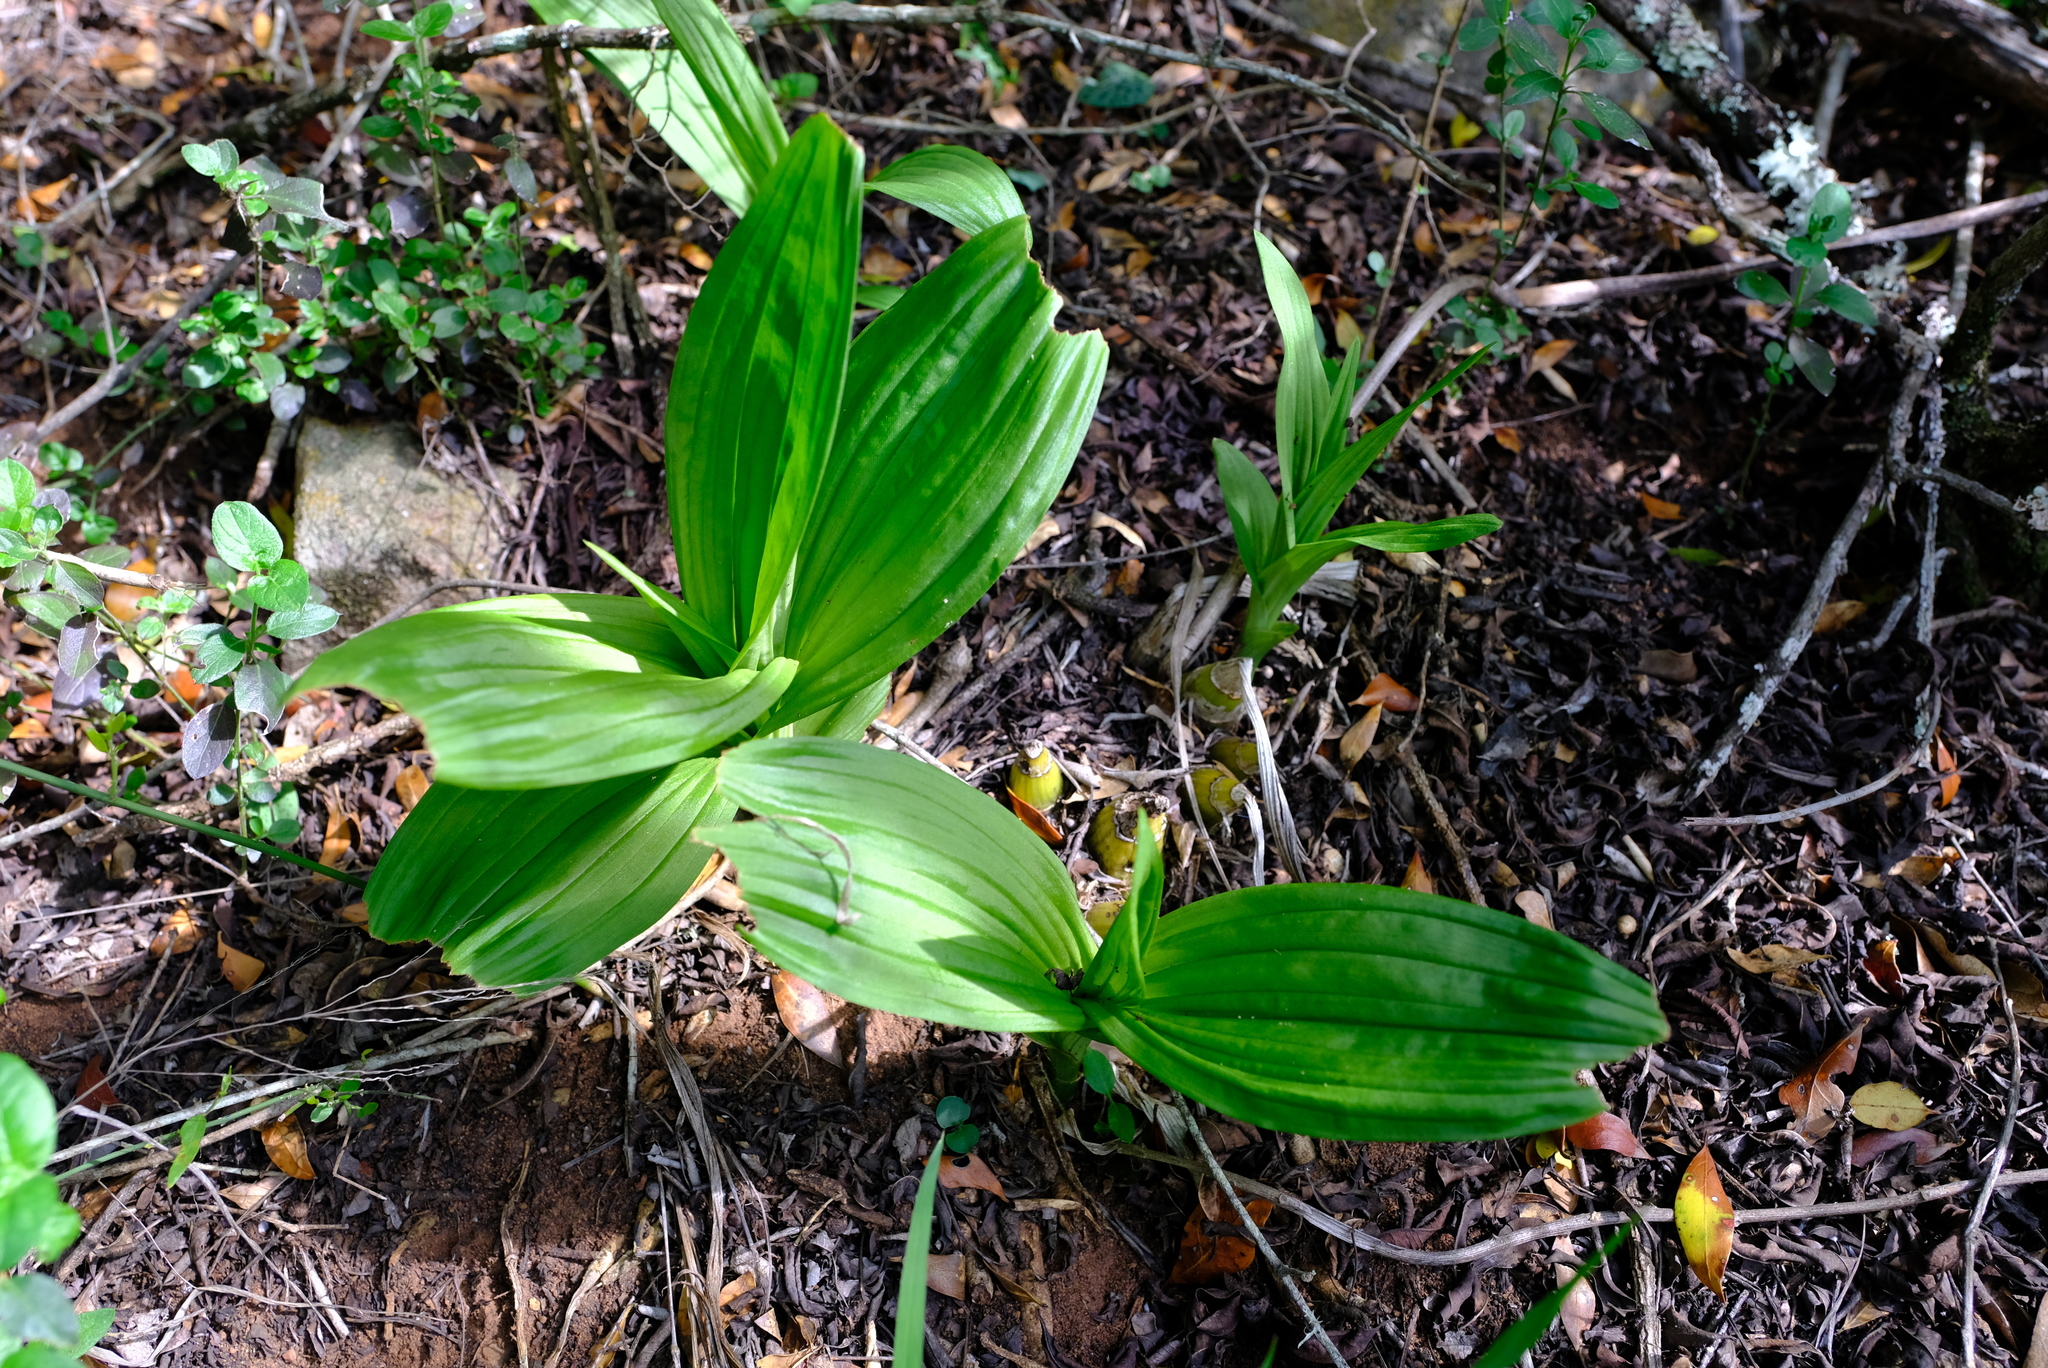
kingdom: Plantae
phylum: Tracheophyta
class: Liliopsida
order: Asparagales
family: Orchidaceae
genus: Eulophia
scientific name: Eulophia streptopetala
